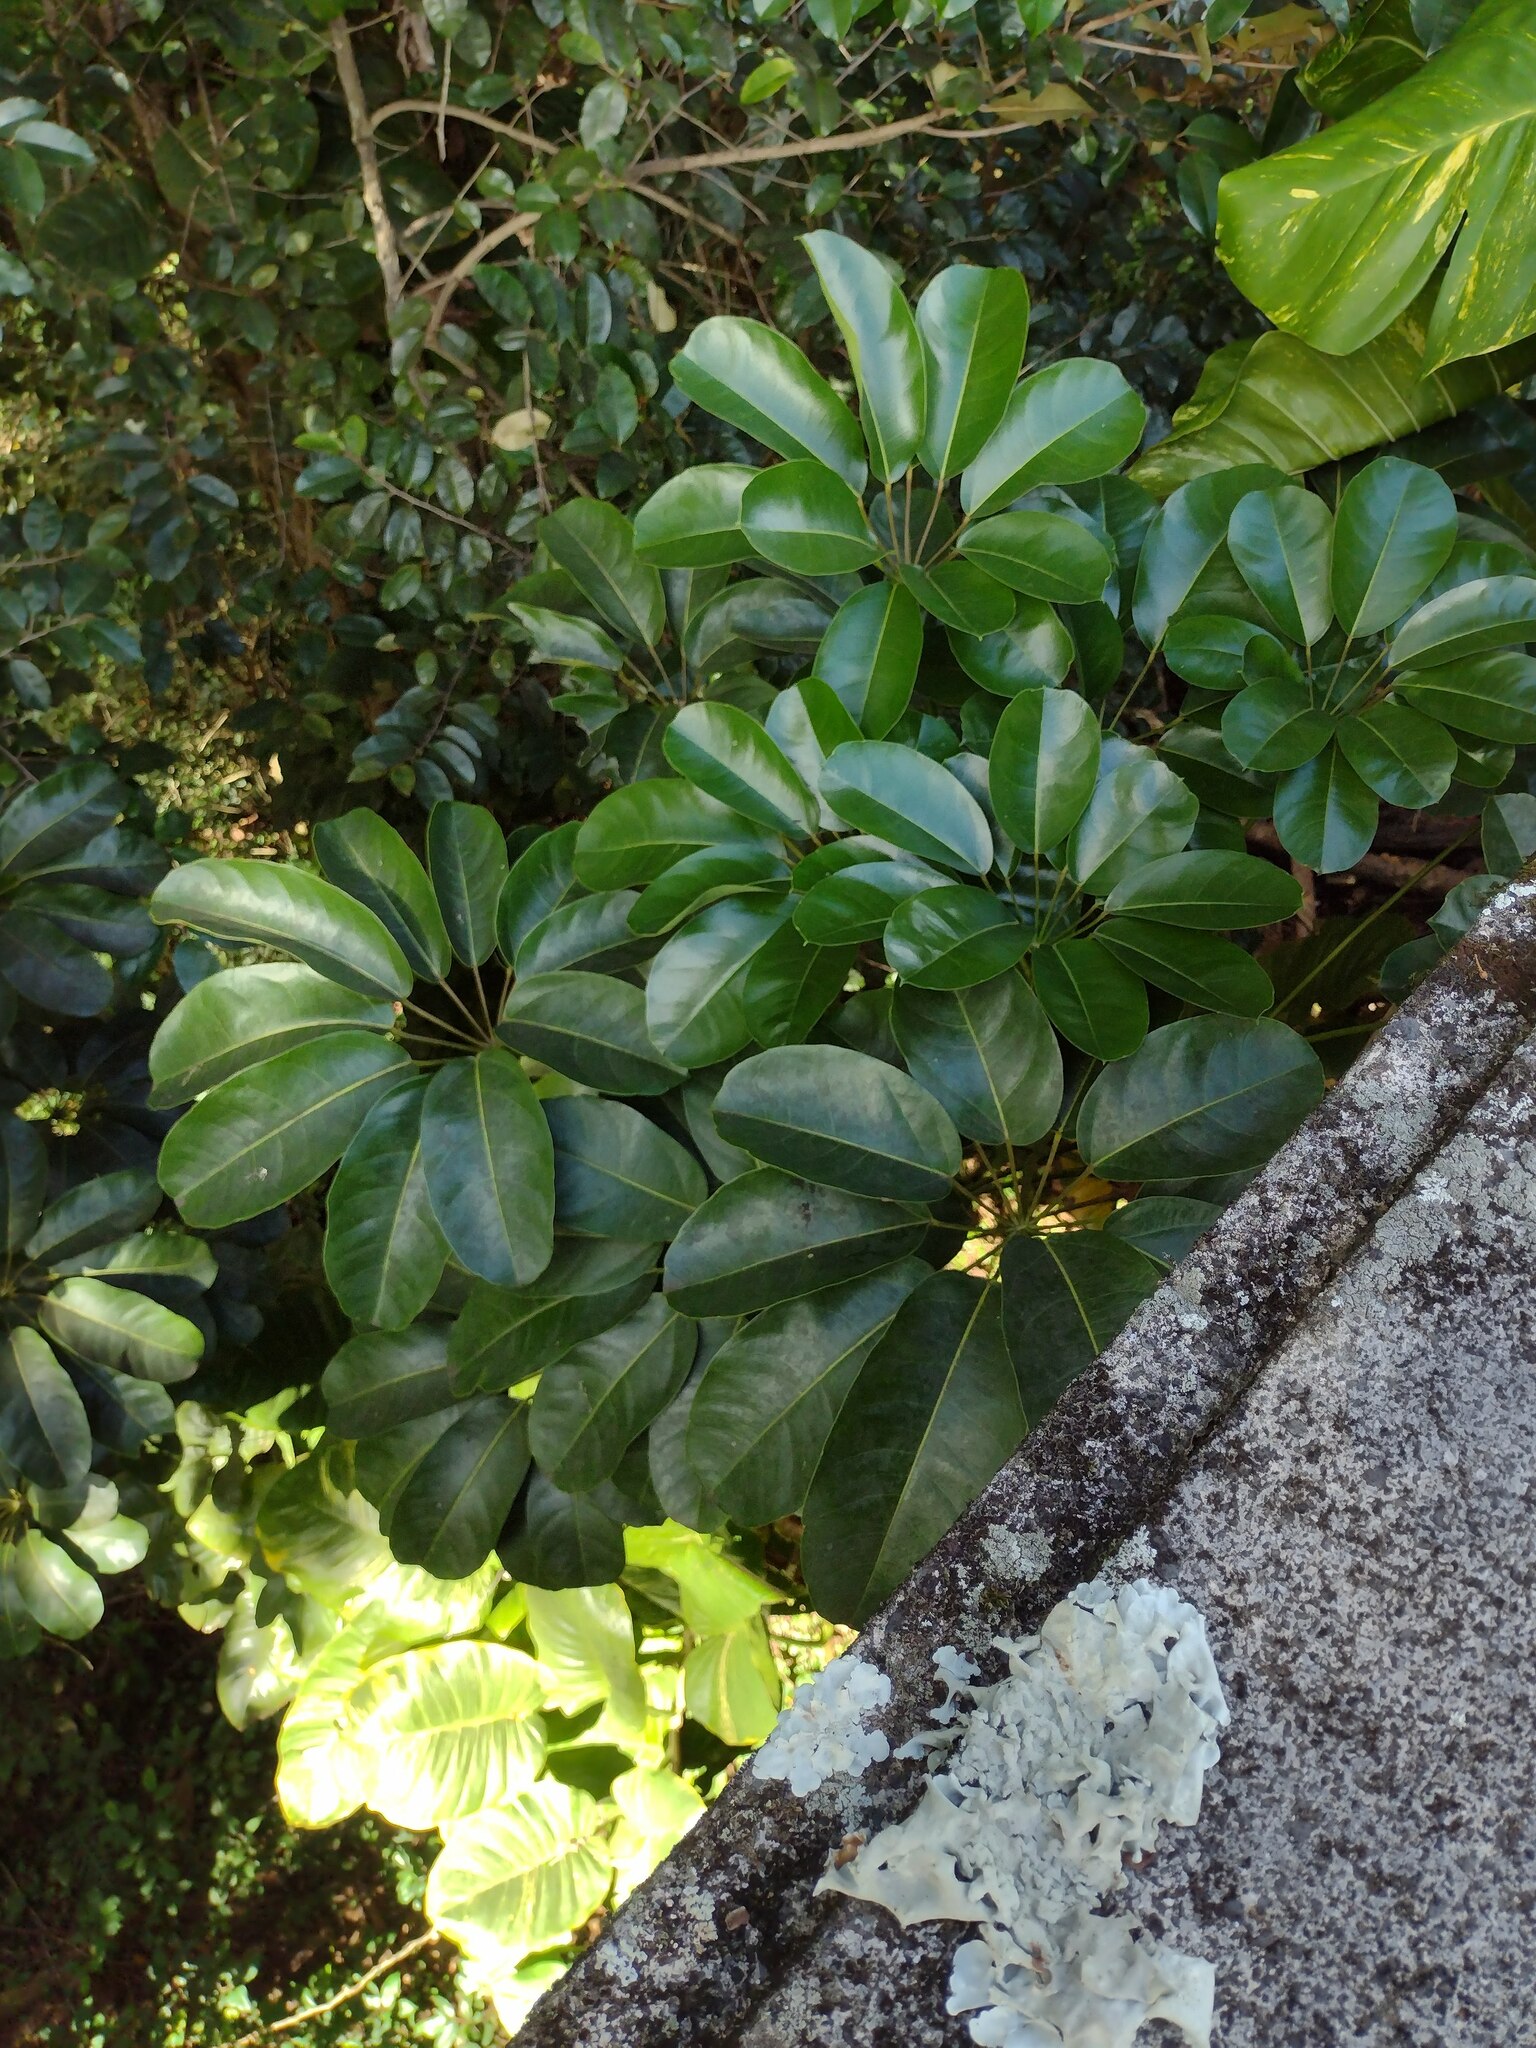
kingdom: Plantae
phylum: Tracheophyta
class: Magnoliopsida
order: Apiales
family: Araliaceae
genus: Heptapleurum
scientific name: Heptapleurum actinophyllum
